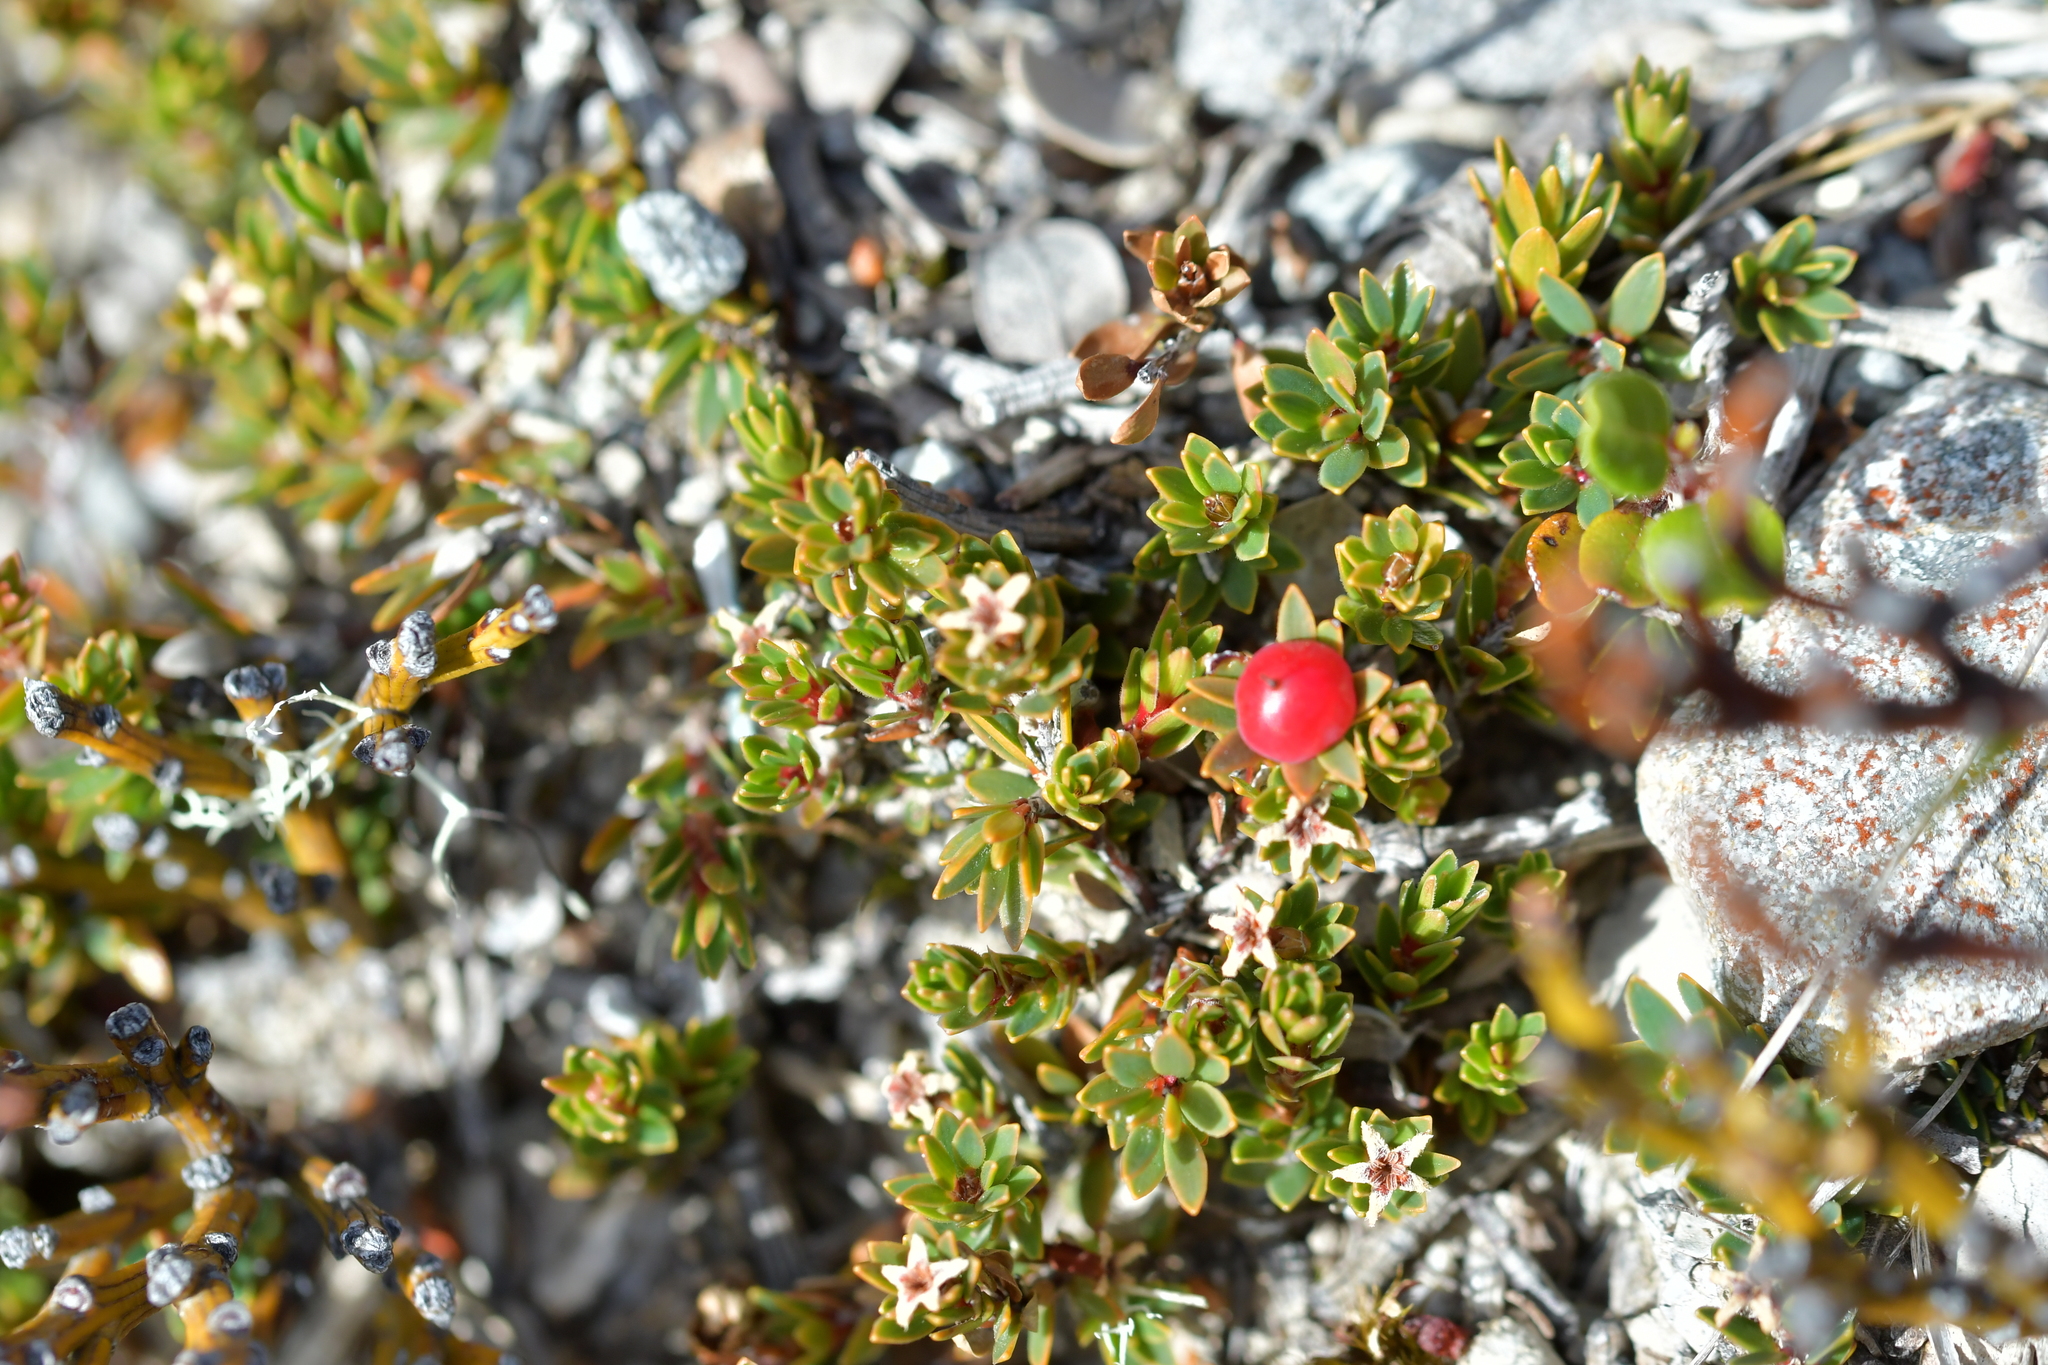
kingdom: Plantae
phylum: Tracheophyta
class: Magnoliopsida
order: Ericales
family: Ericaceae
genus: Pentachondra
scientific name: Pentachondra pumila
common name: Carpet-heath
